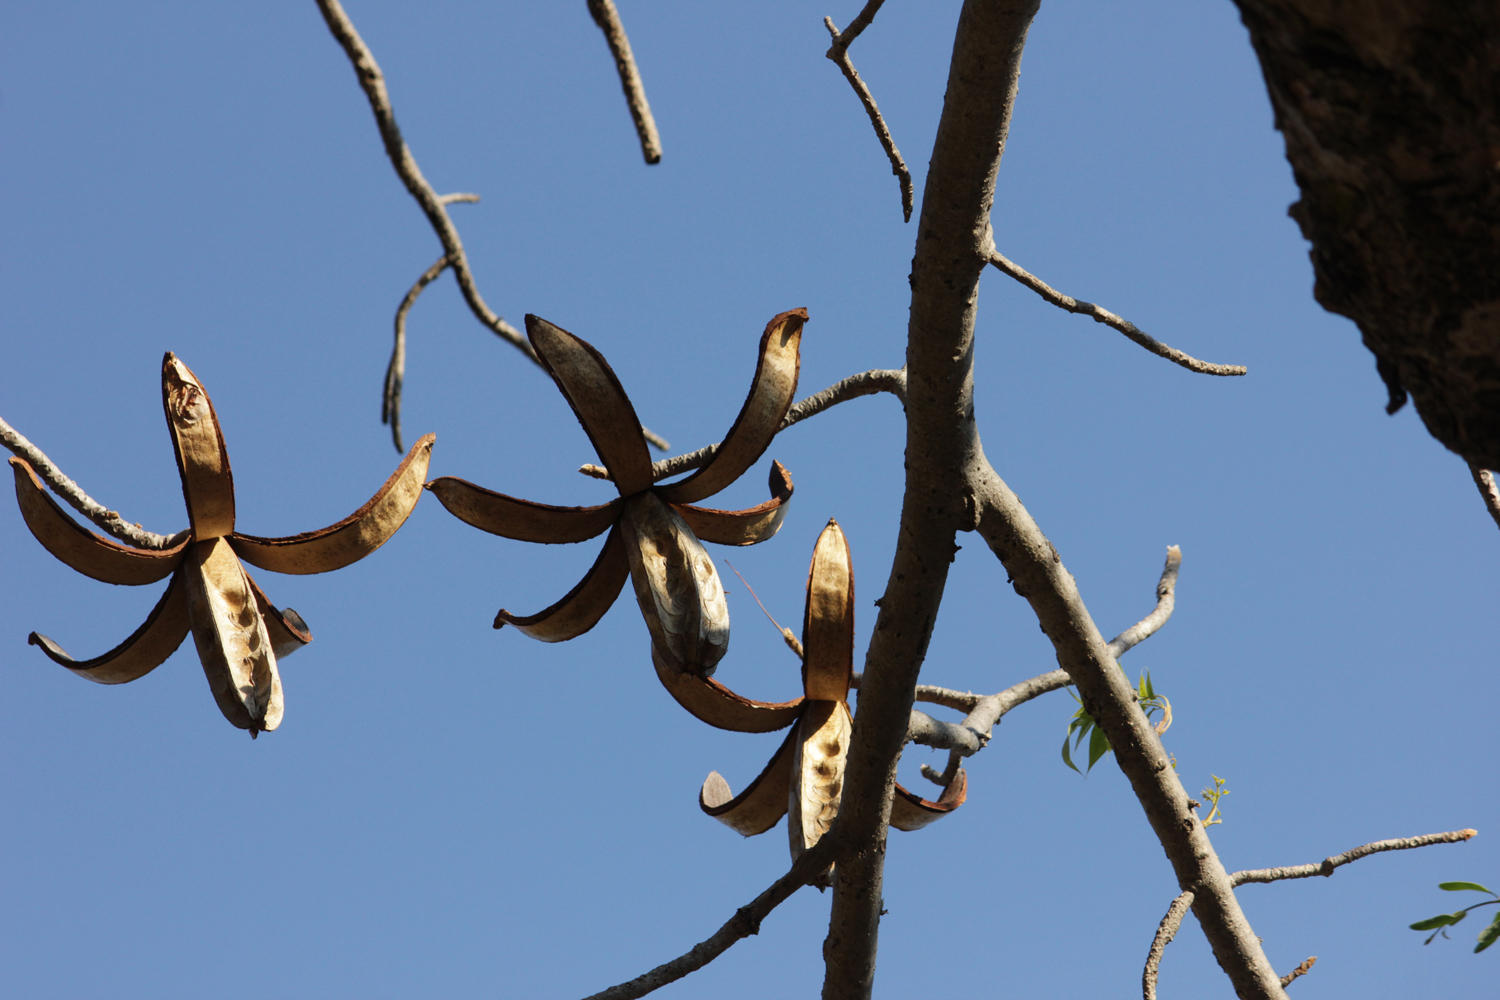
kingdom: Plantae
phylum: Tracheophyta
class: Magnoliopsida
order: Sapindales
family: Meliaceae
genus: Entandrophragma
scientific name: Entandrophragma caudatum
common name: Mountain-mahogany
